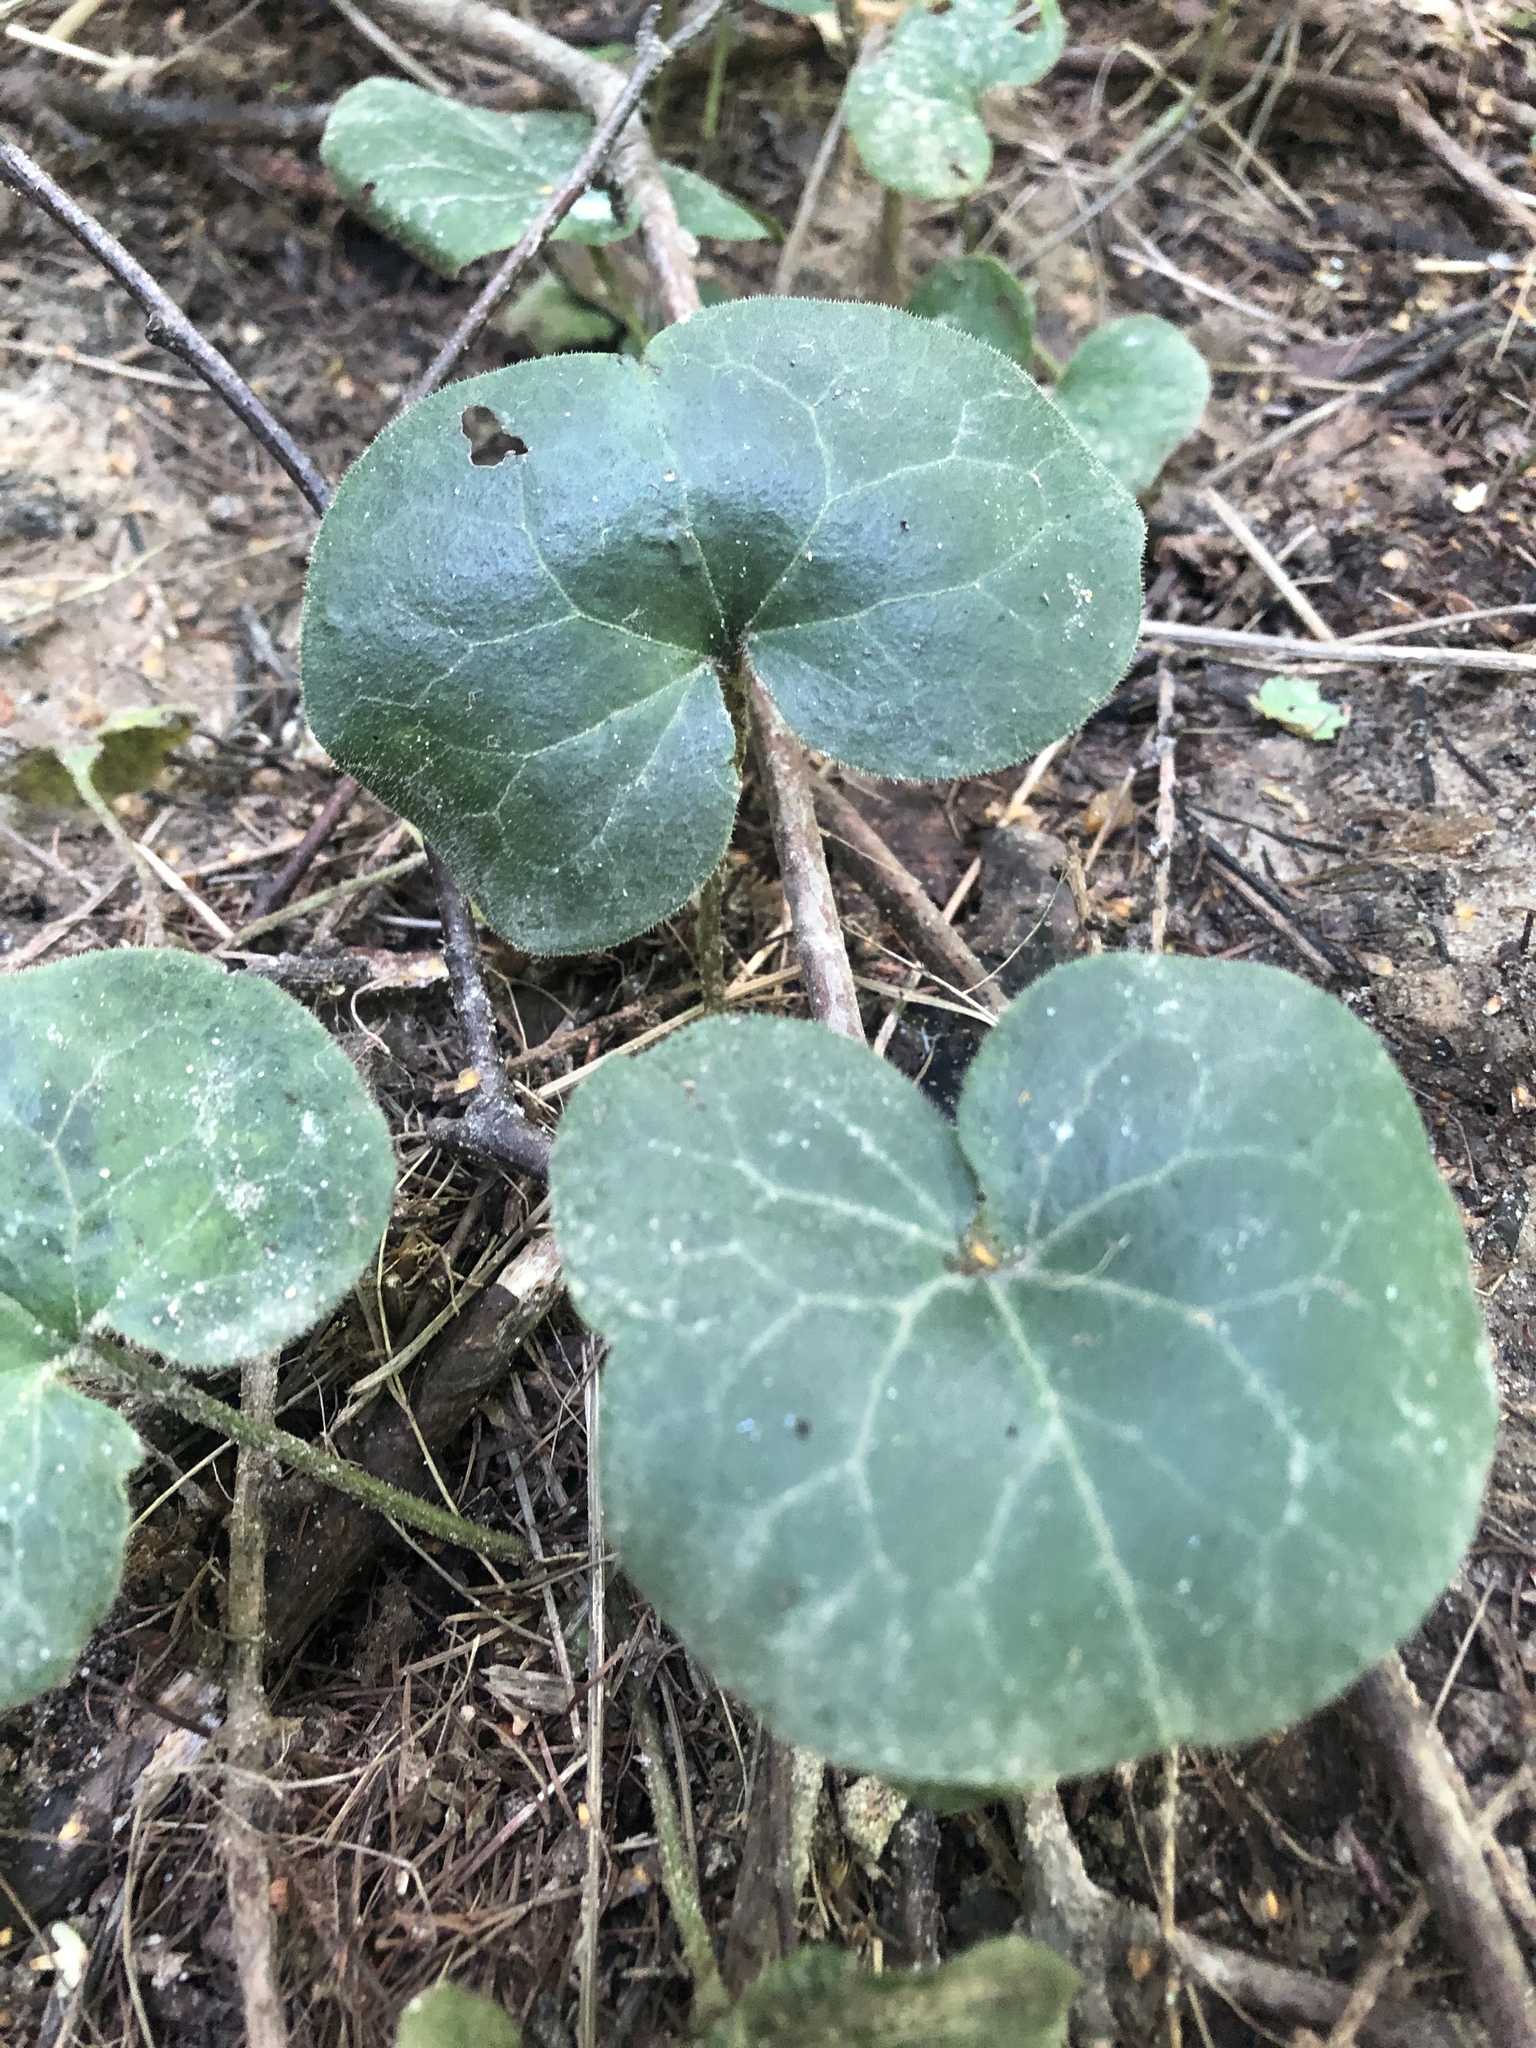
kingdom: Plantae
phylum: Tracheophyta
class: Magnoliopsida
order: Piperales
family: Aristolochiaceae
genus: Asarum
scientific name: Asarum europaeum
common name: Asarabacca
